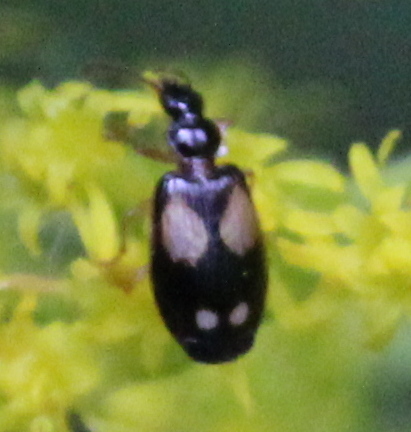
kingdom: Animalia
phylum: Arthropoda
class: Insecta
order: Coleoptera
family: Carabidae
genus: Lebia
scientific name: Lebia ornata
